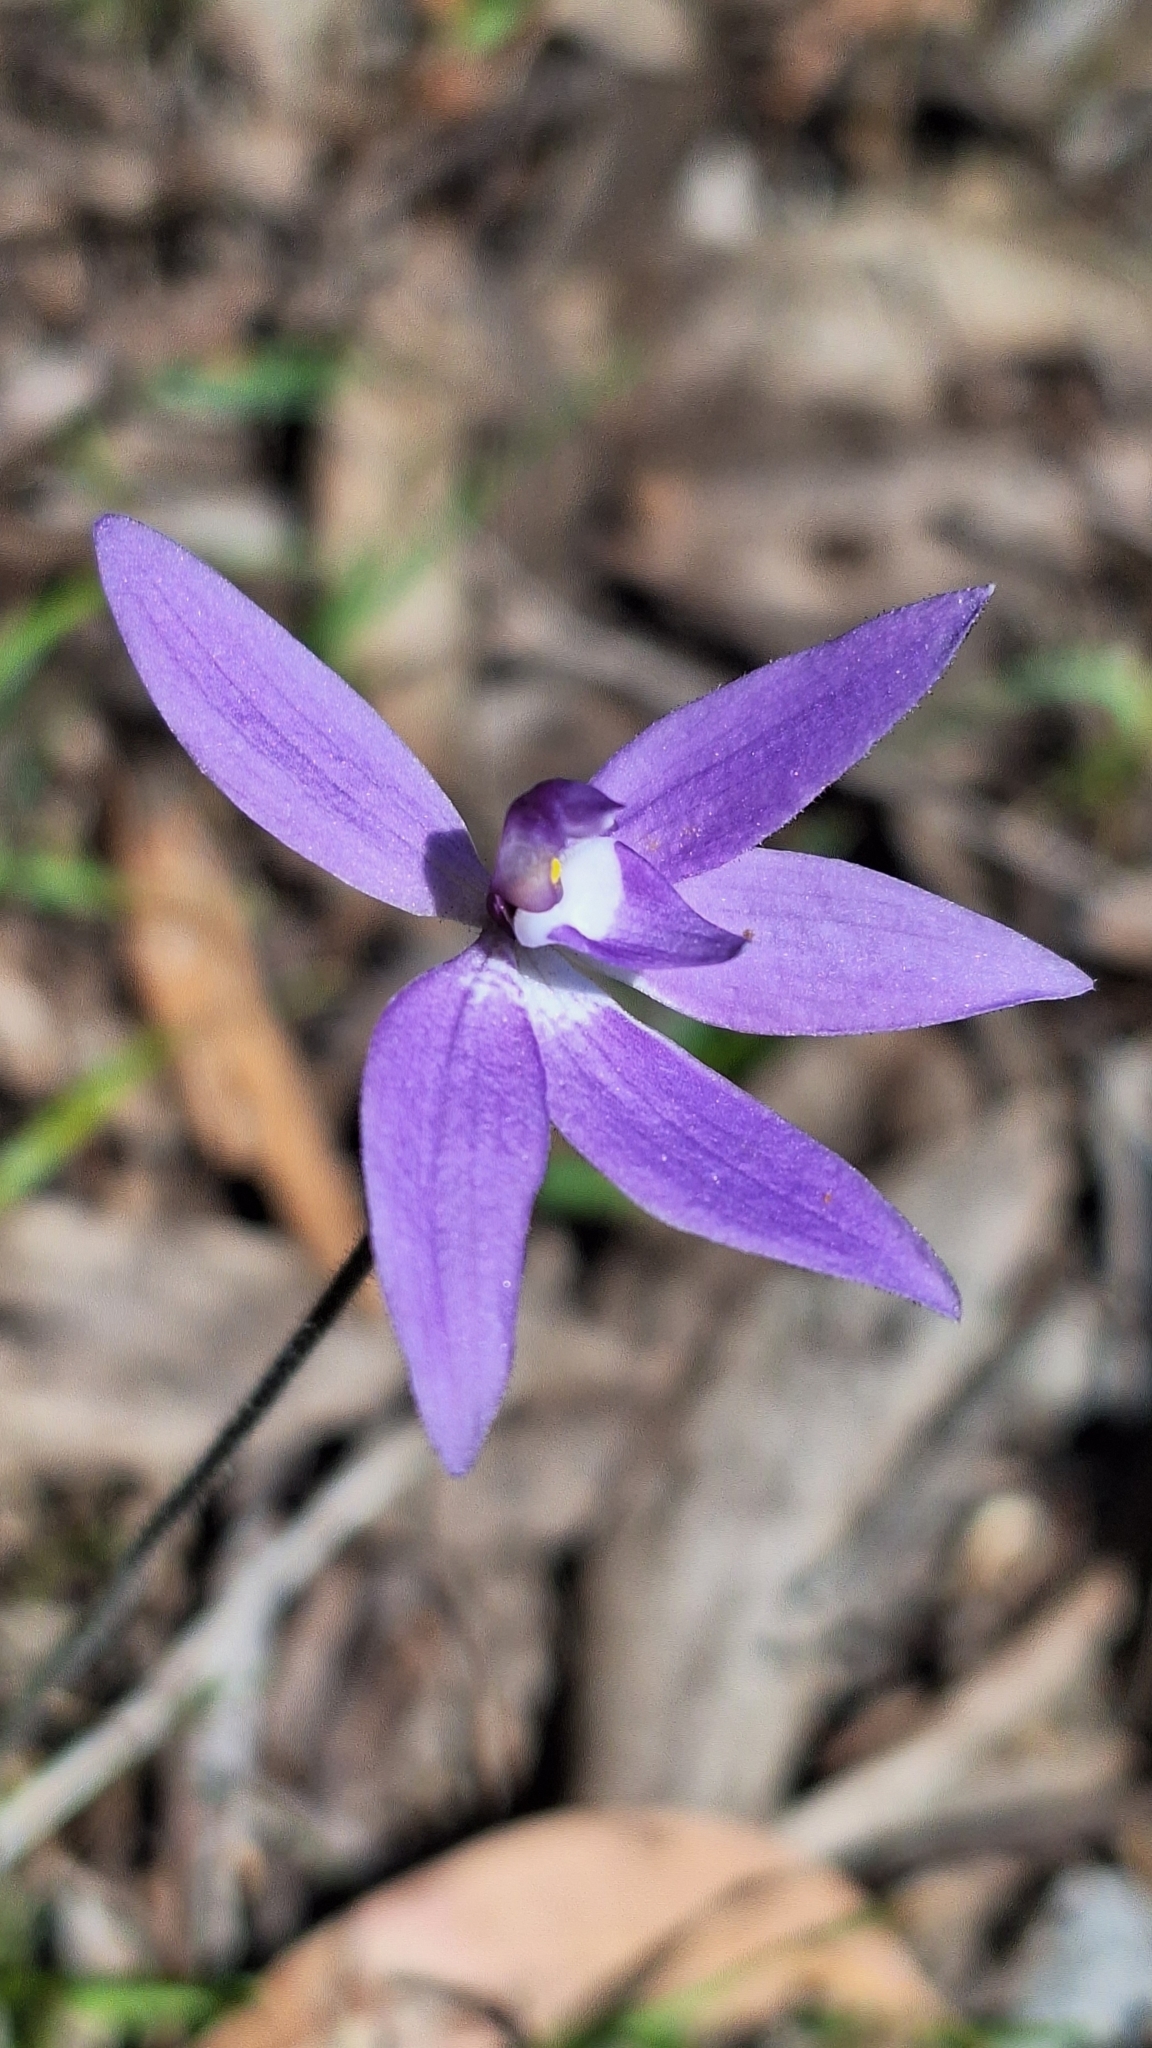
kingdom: Plantae
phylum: Tracheophyta
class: Liliopsida
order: Asparagales
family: Orchidaceae
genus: Caladenia
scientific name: Caladenia major
